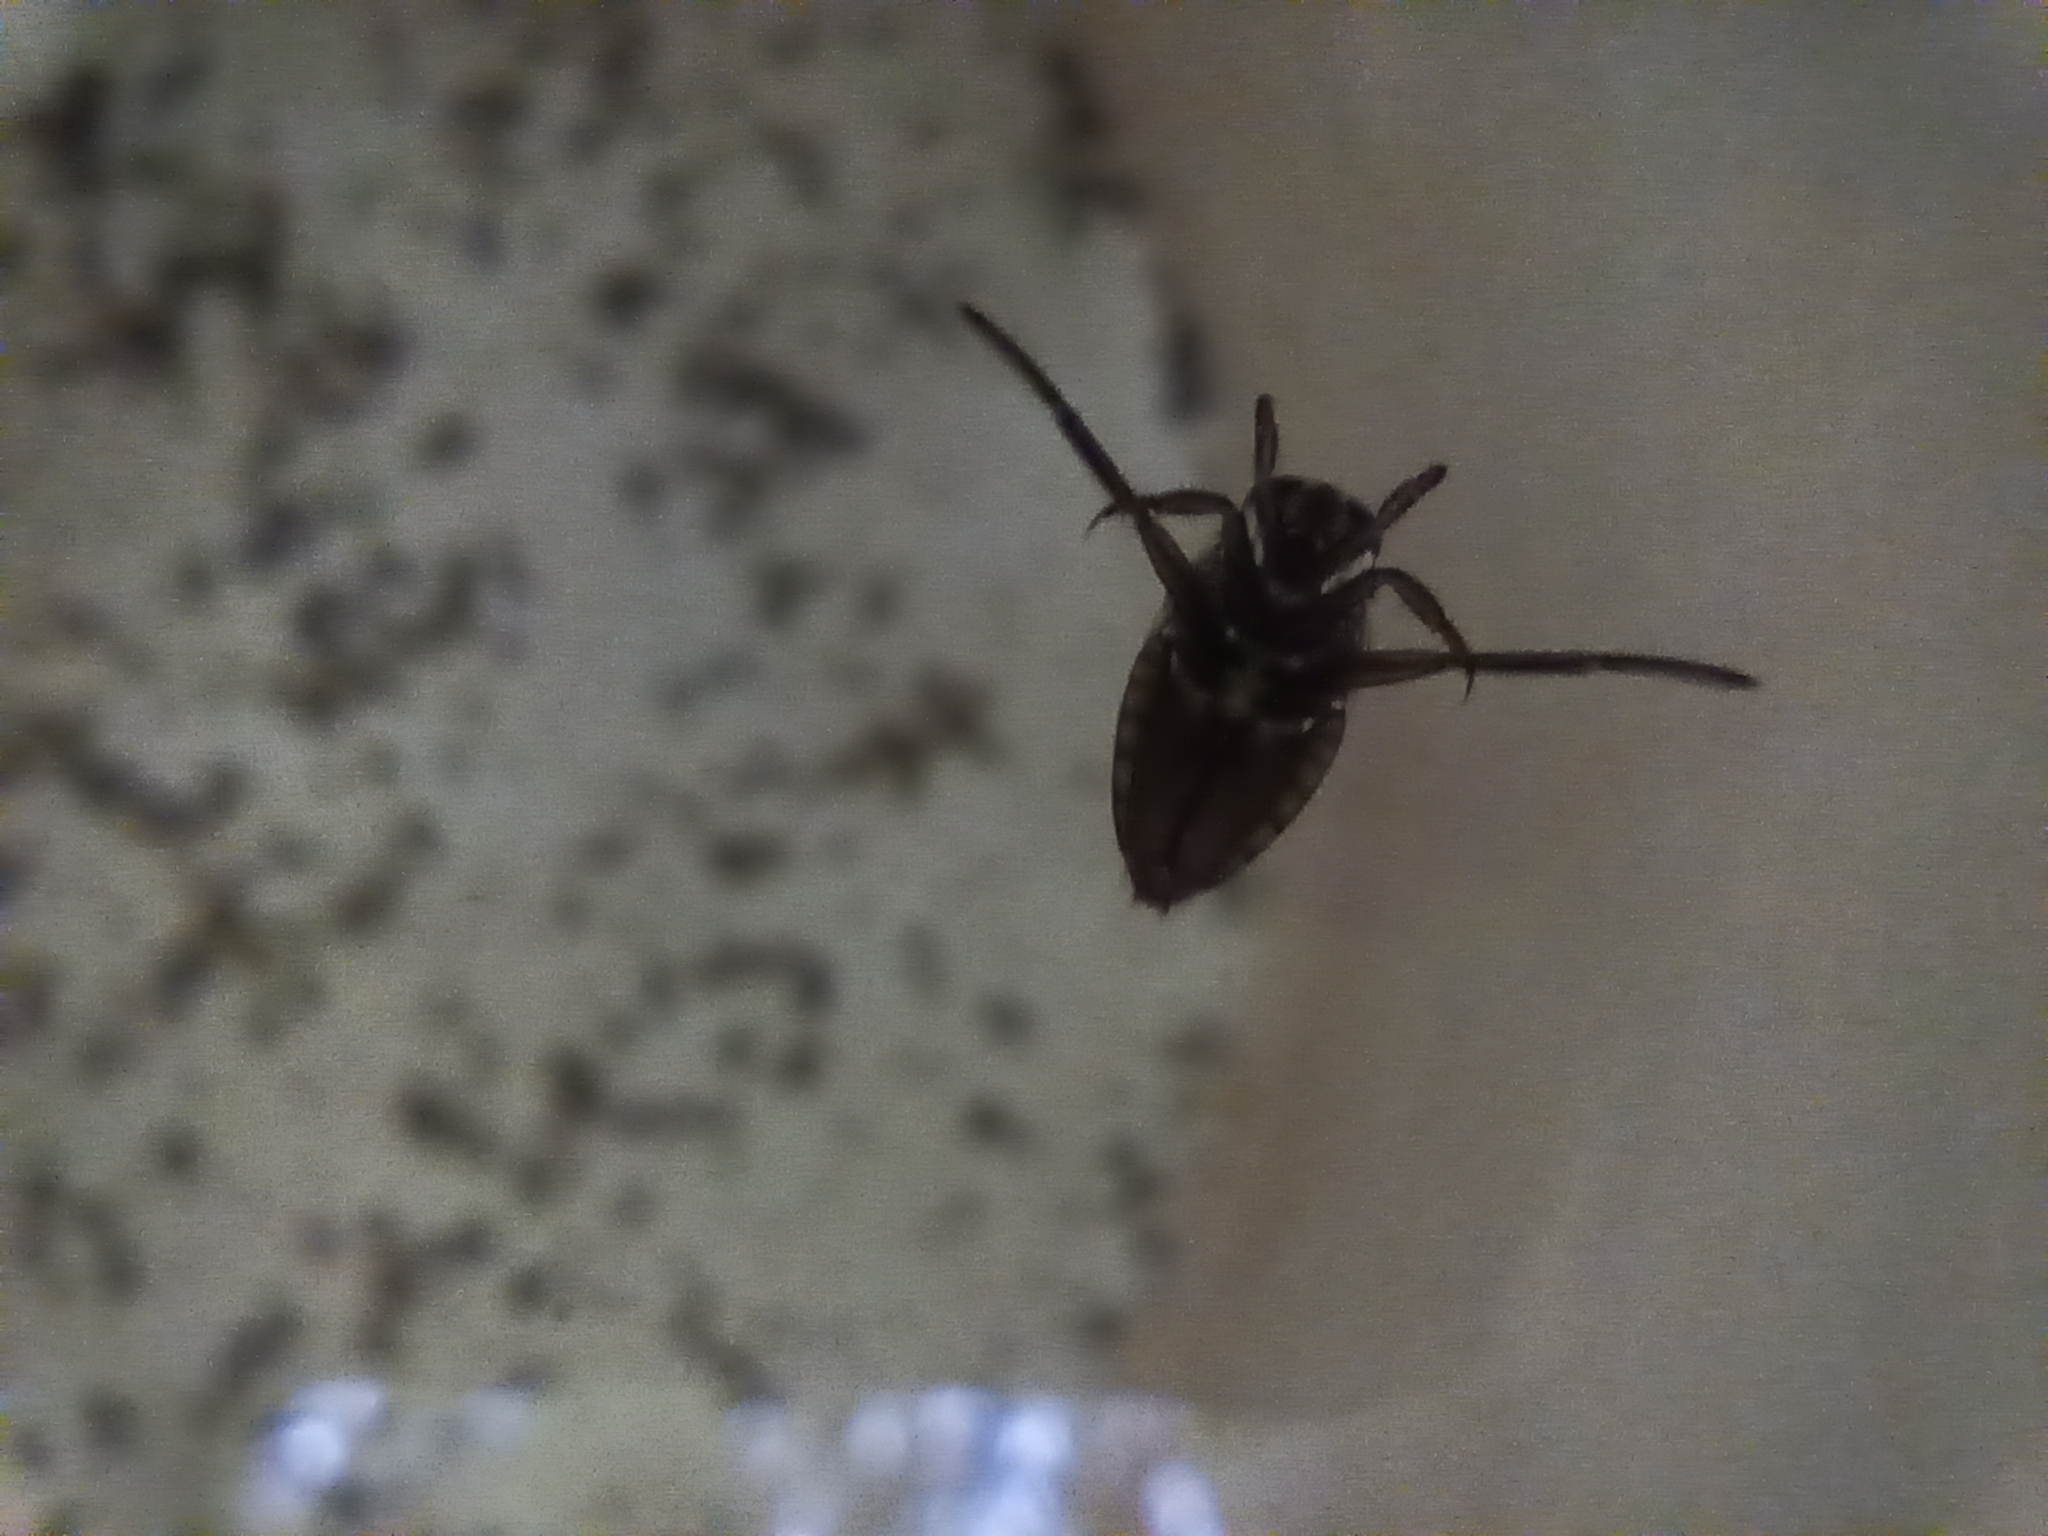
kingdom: Animalia
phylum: Arthropoda
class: Insecta
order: Hemiptera
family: Notonectidae
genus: Notonecta
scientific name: Notonecta
